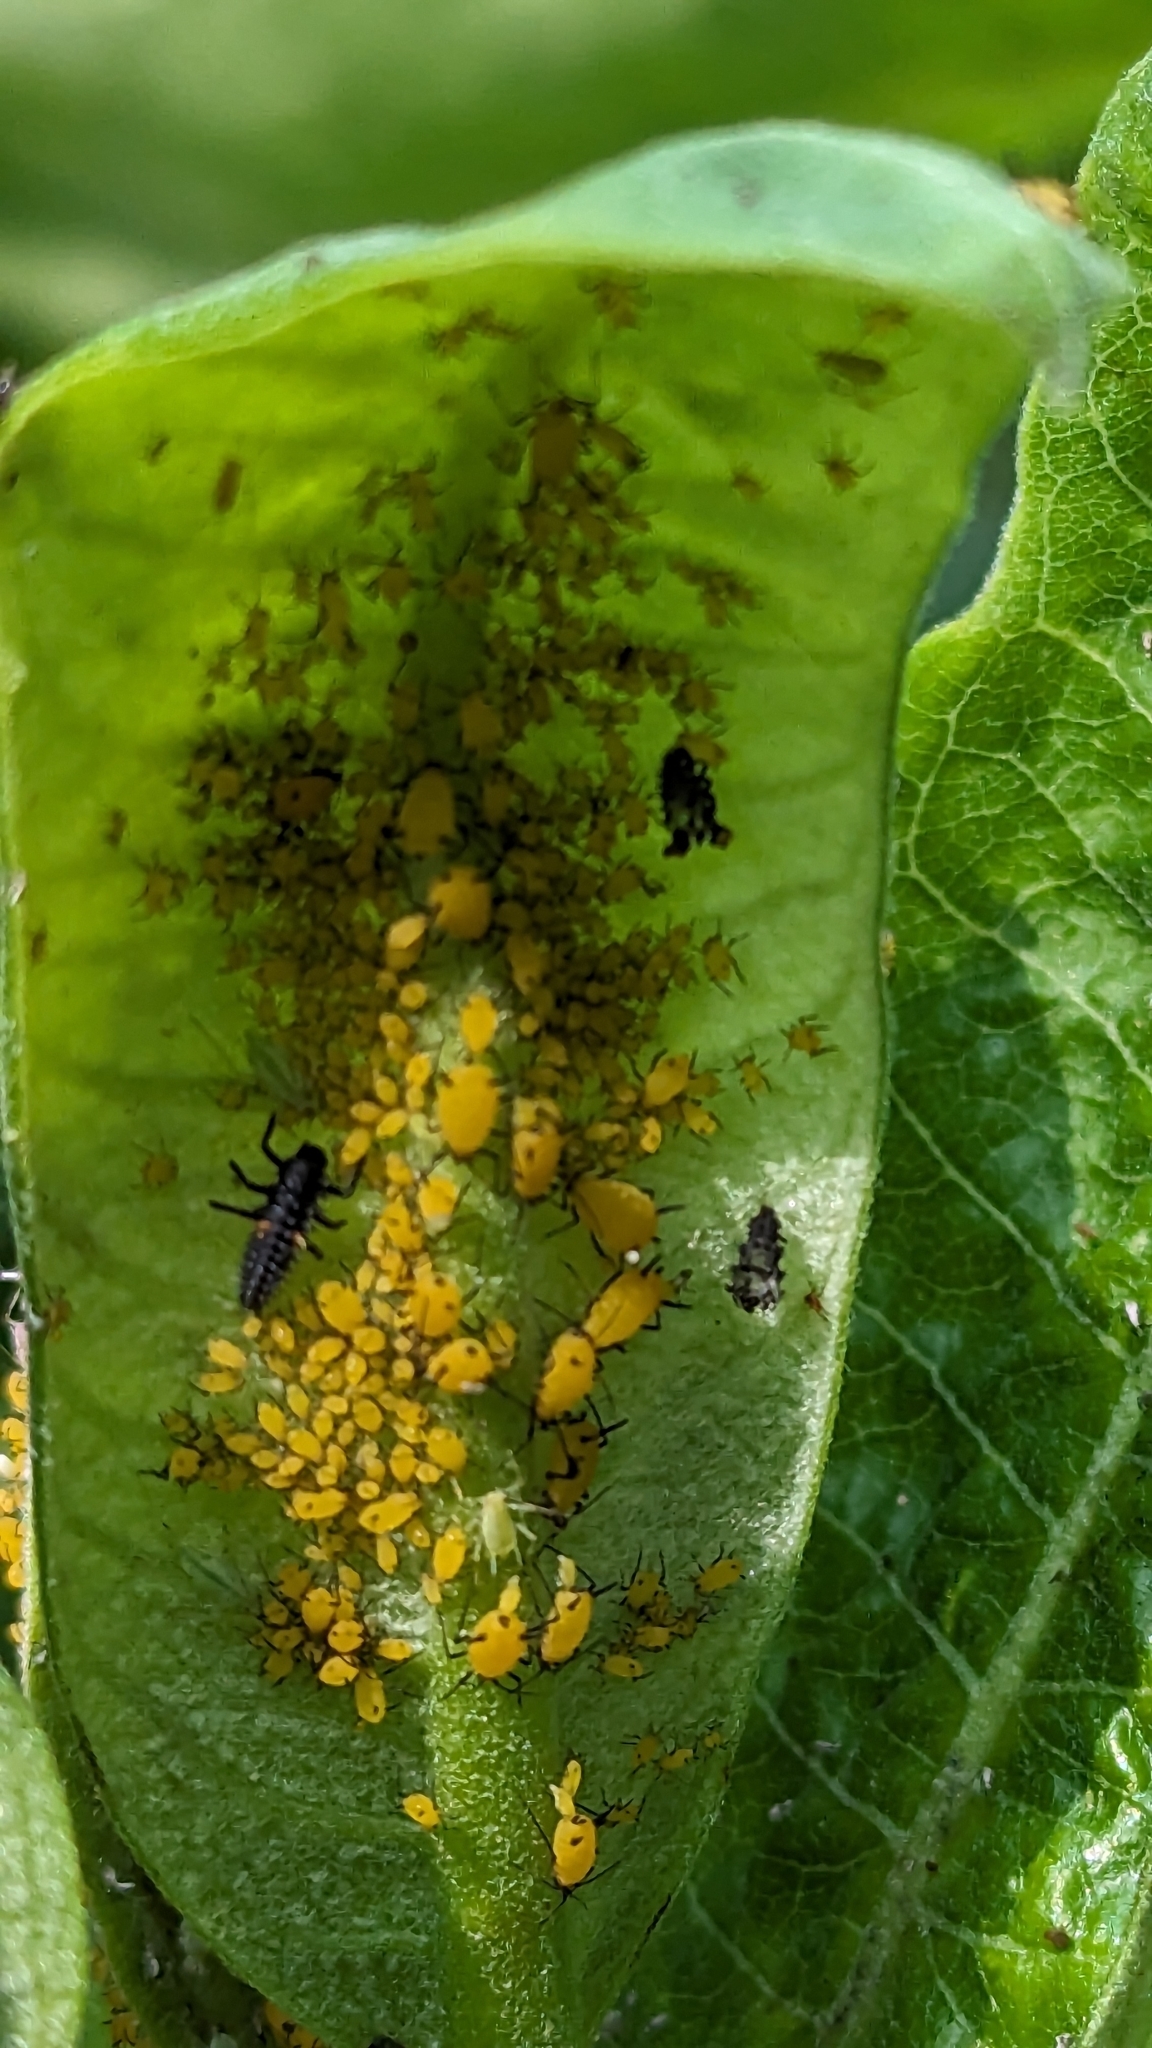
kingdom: Animalia
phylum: Arthropoda
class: Insecta
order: Hemiptera
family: Aphididae
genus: Aphis
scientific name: Aphis nerii
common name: Oleander aphid
